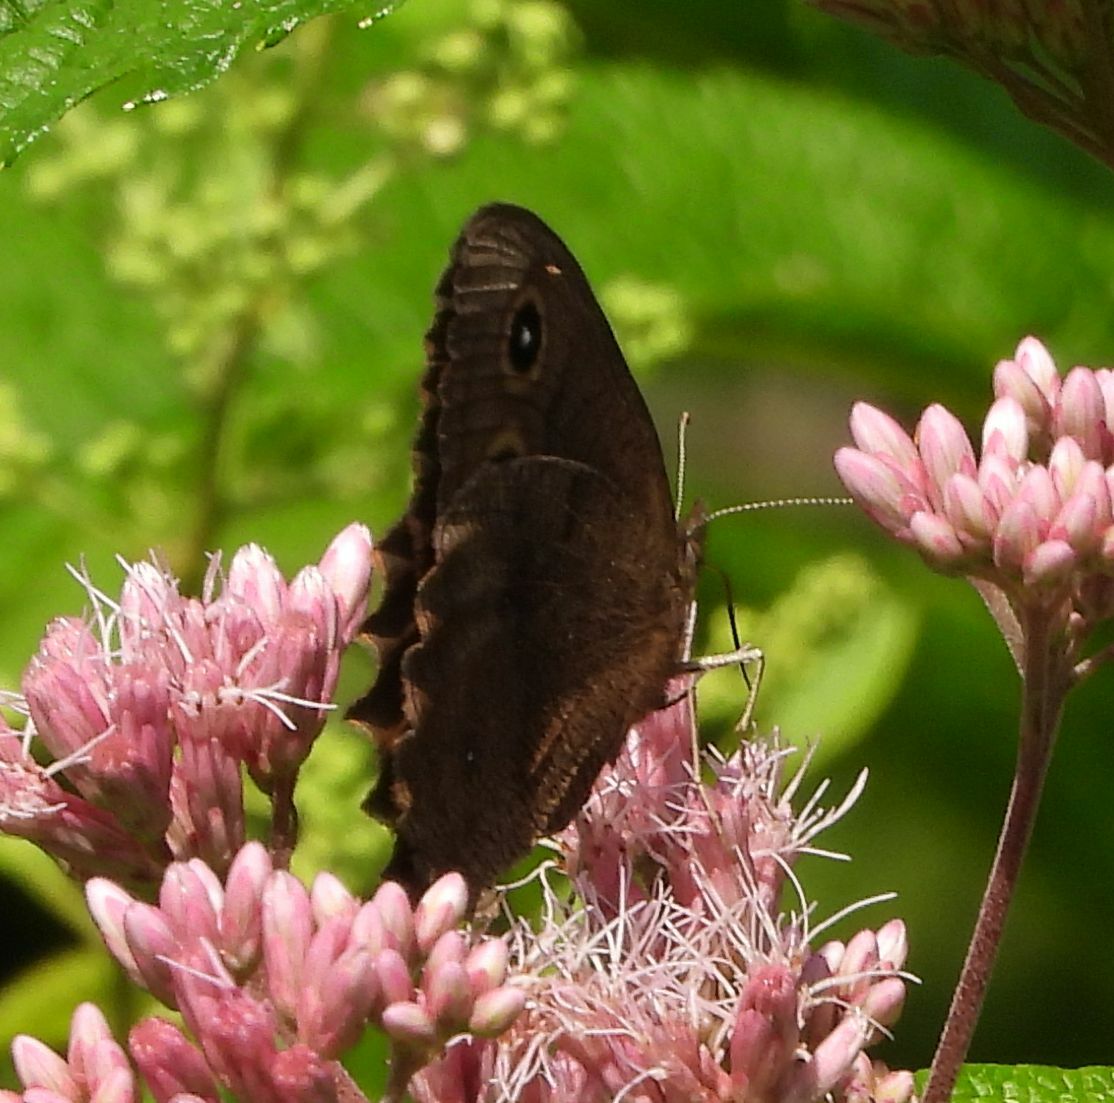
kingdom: Animalia
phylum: Arthropoda
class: Insecta
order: Lepidoptera
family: Nymphalidae
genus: Cercyonis
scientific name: Cercyonis pegala
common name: Common wood-nymph
